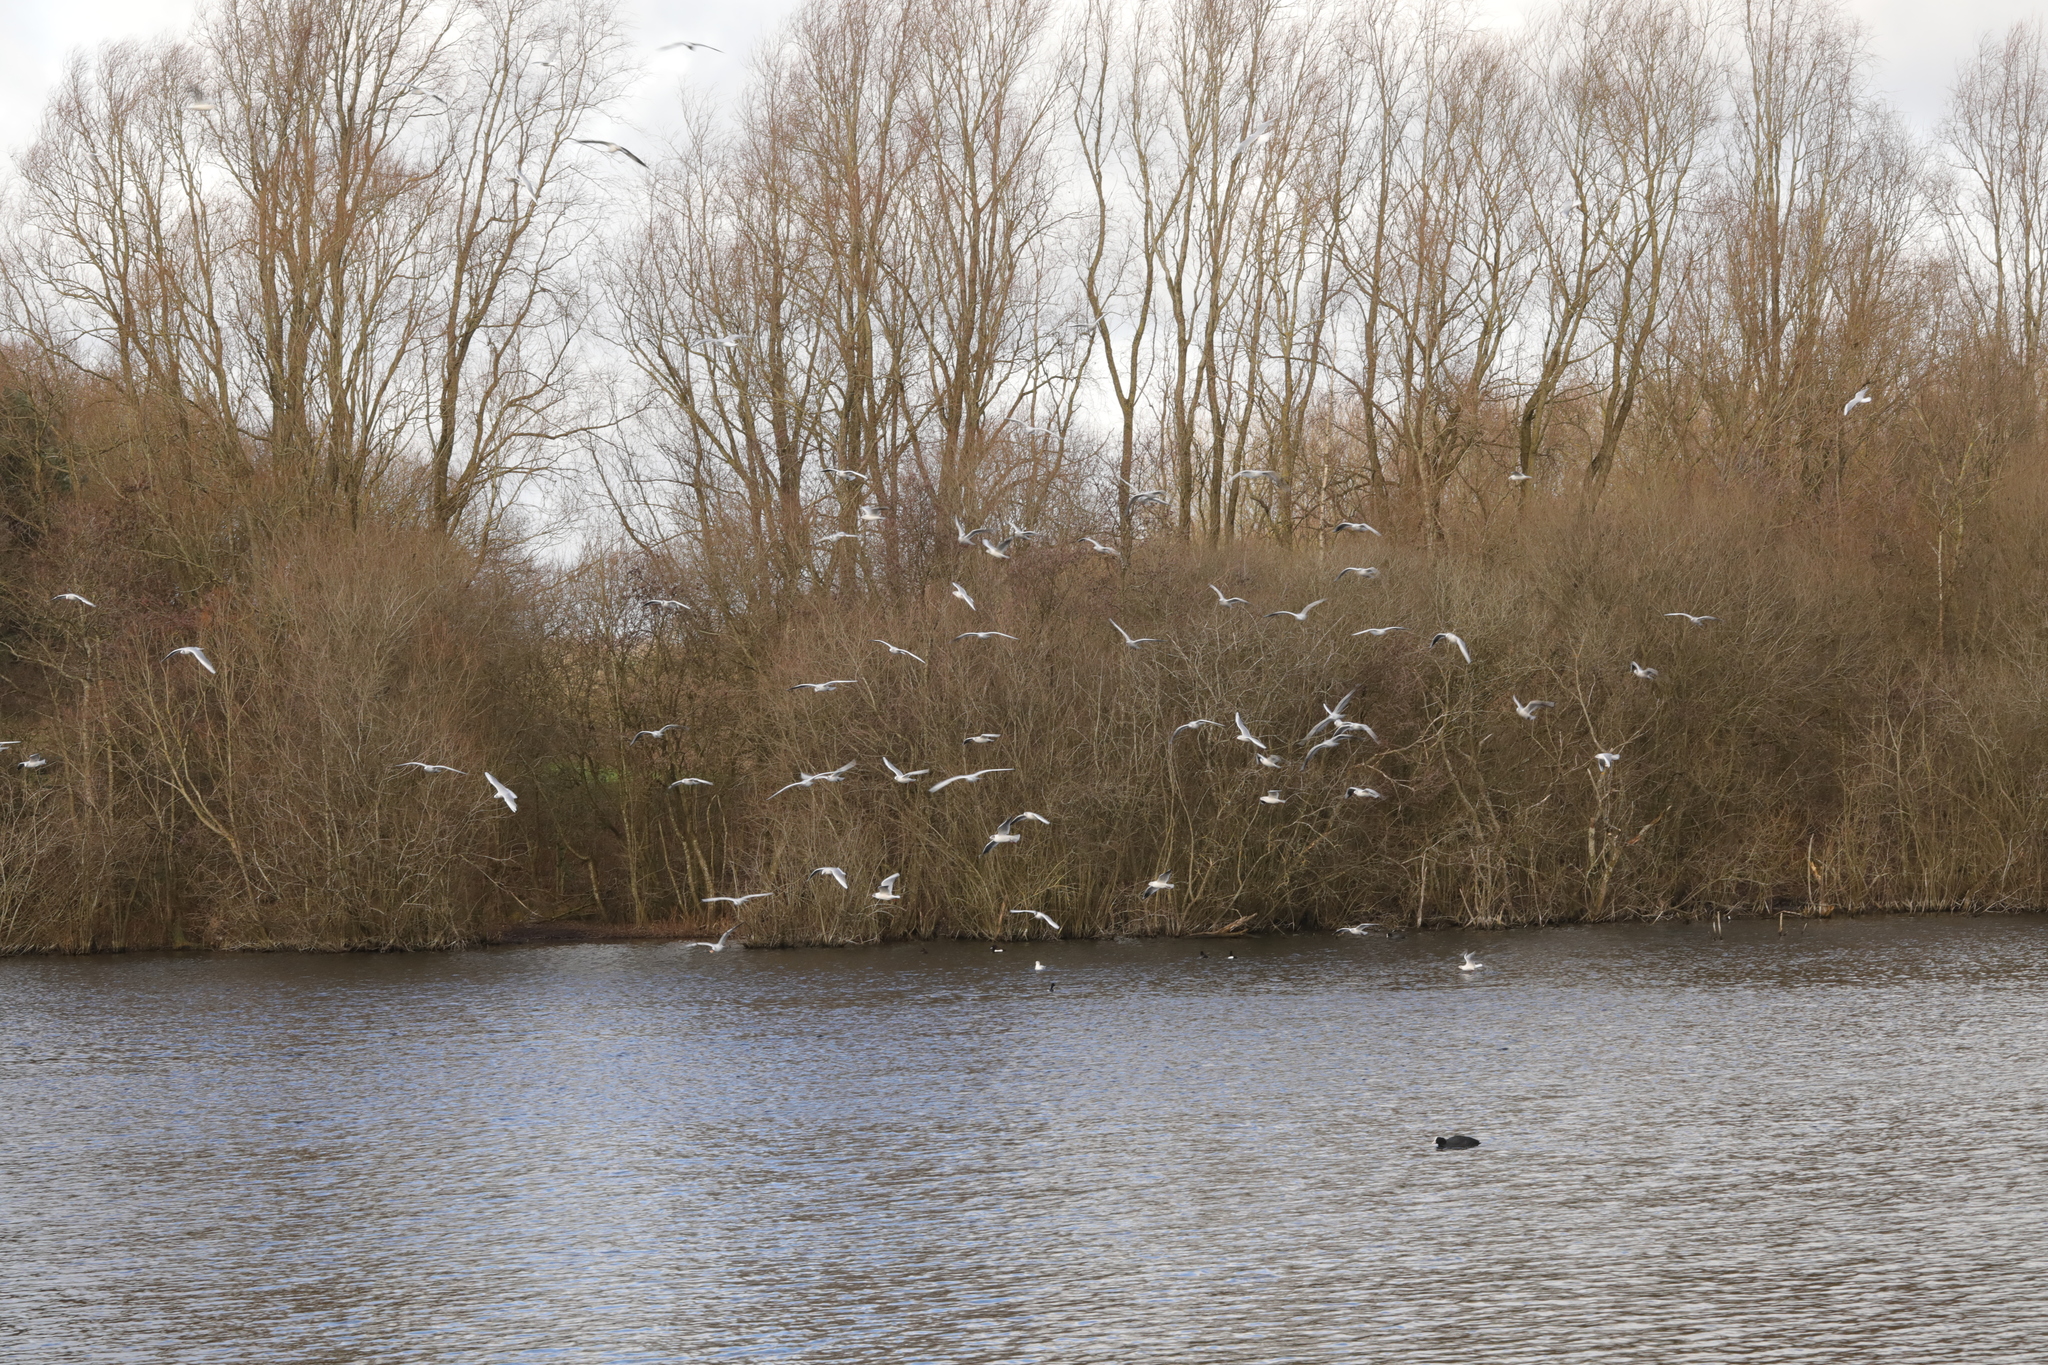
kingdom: Animalia
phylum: Chordata
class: Aves
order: Charadriiformes
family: Laridae
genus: Chroicocephalus
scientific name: Chroicocephalus ridibundus
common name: Black-headed gull
